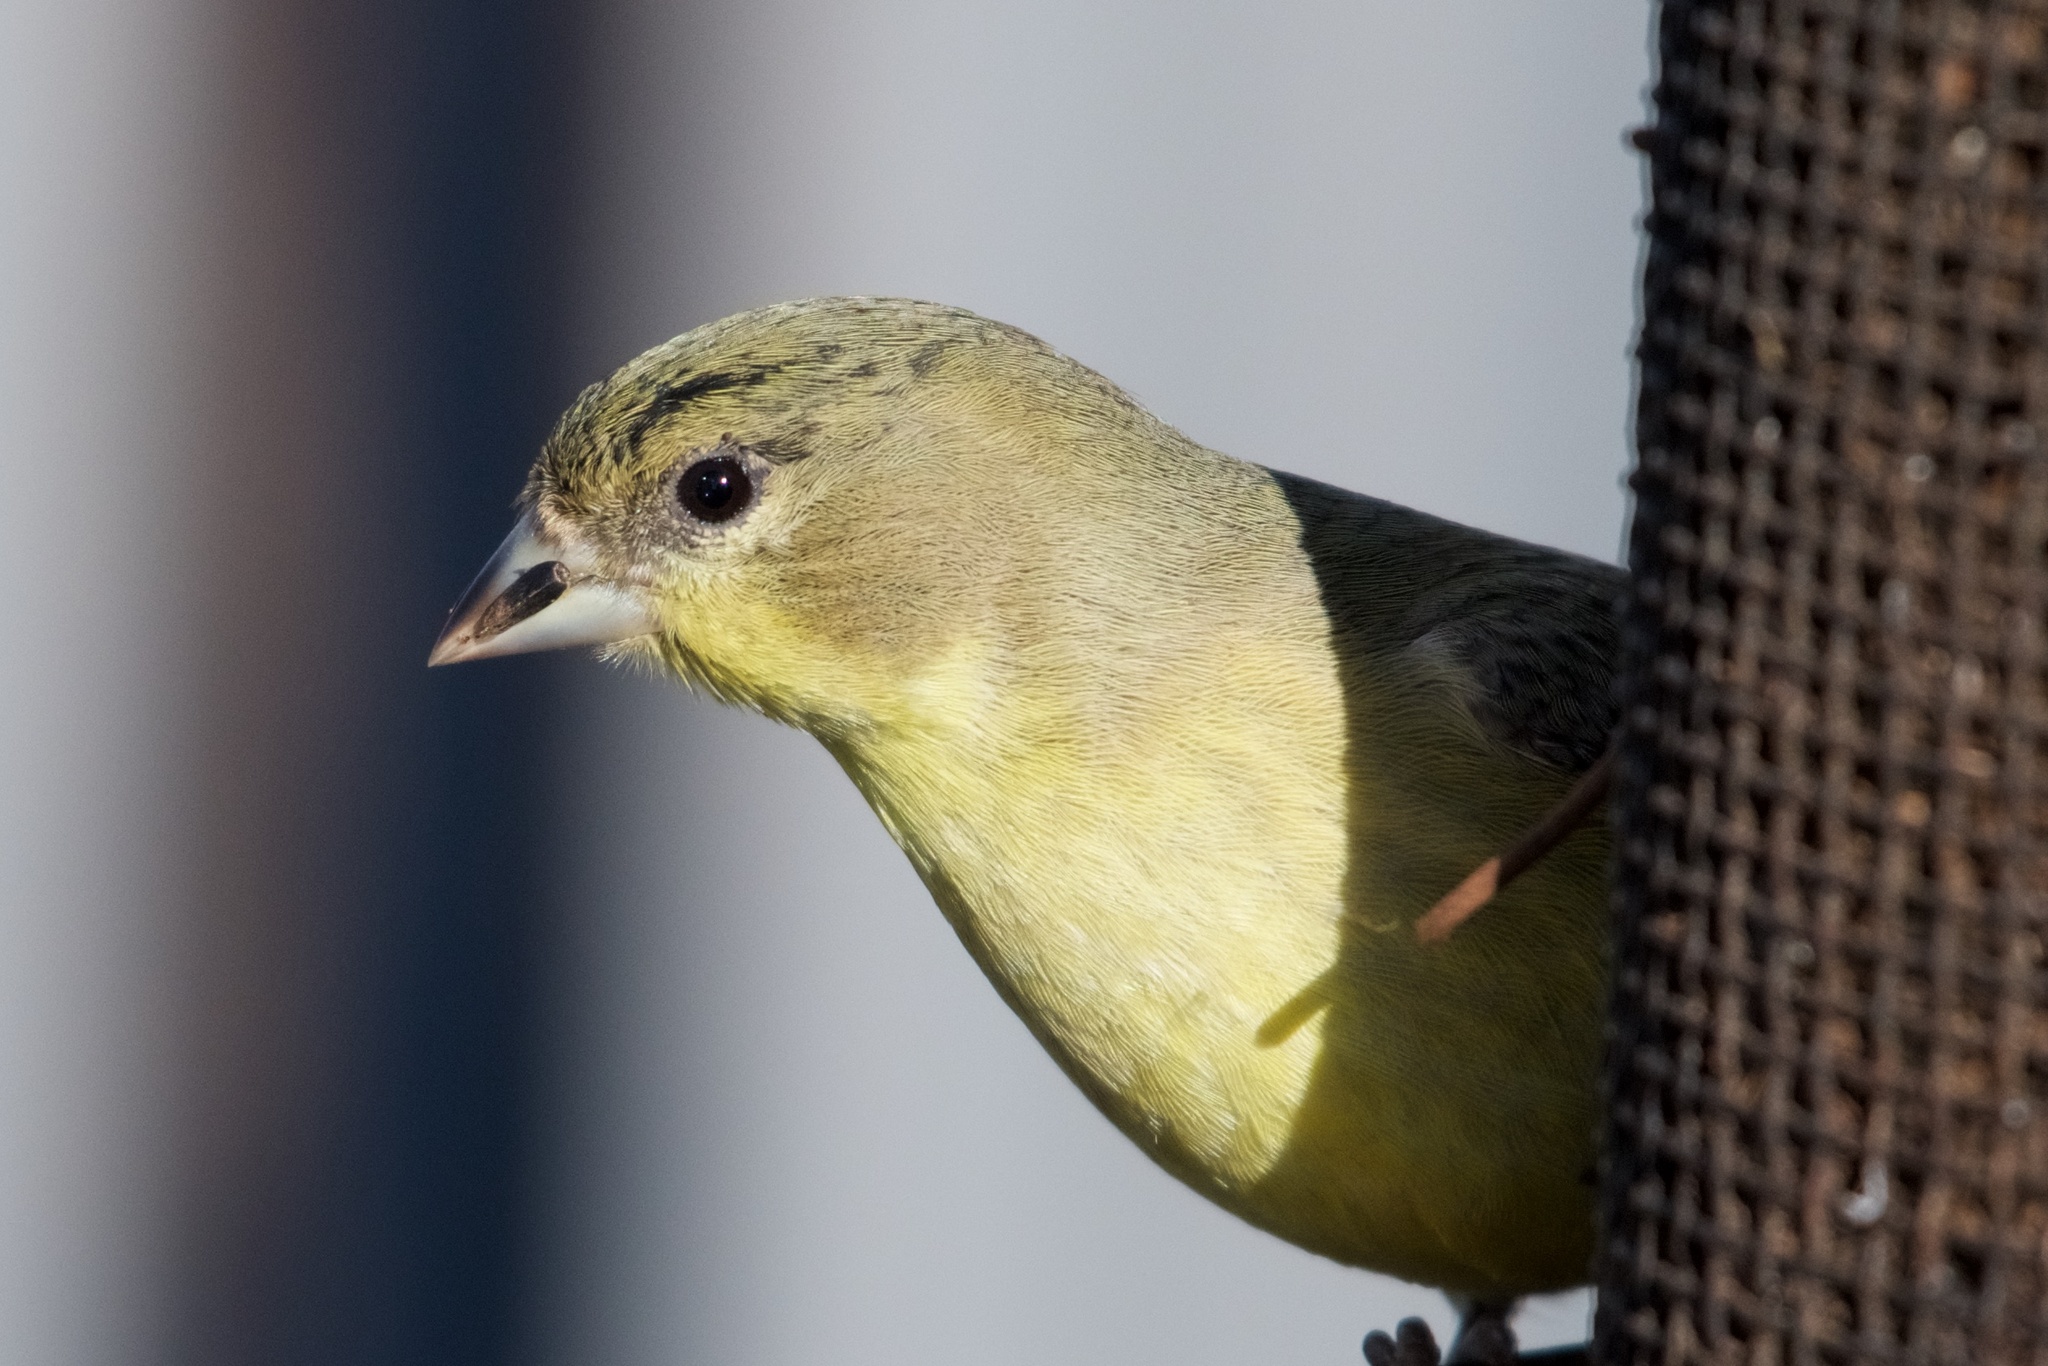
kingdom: Animalia
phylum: Chordata
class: Aves
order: Passeriformes
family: Fringillidae
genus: Spinus
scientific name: Spinus psaltria
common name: Lesser goldfinch
